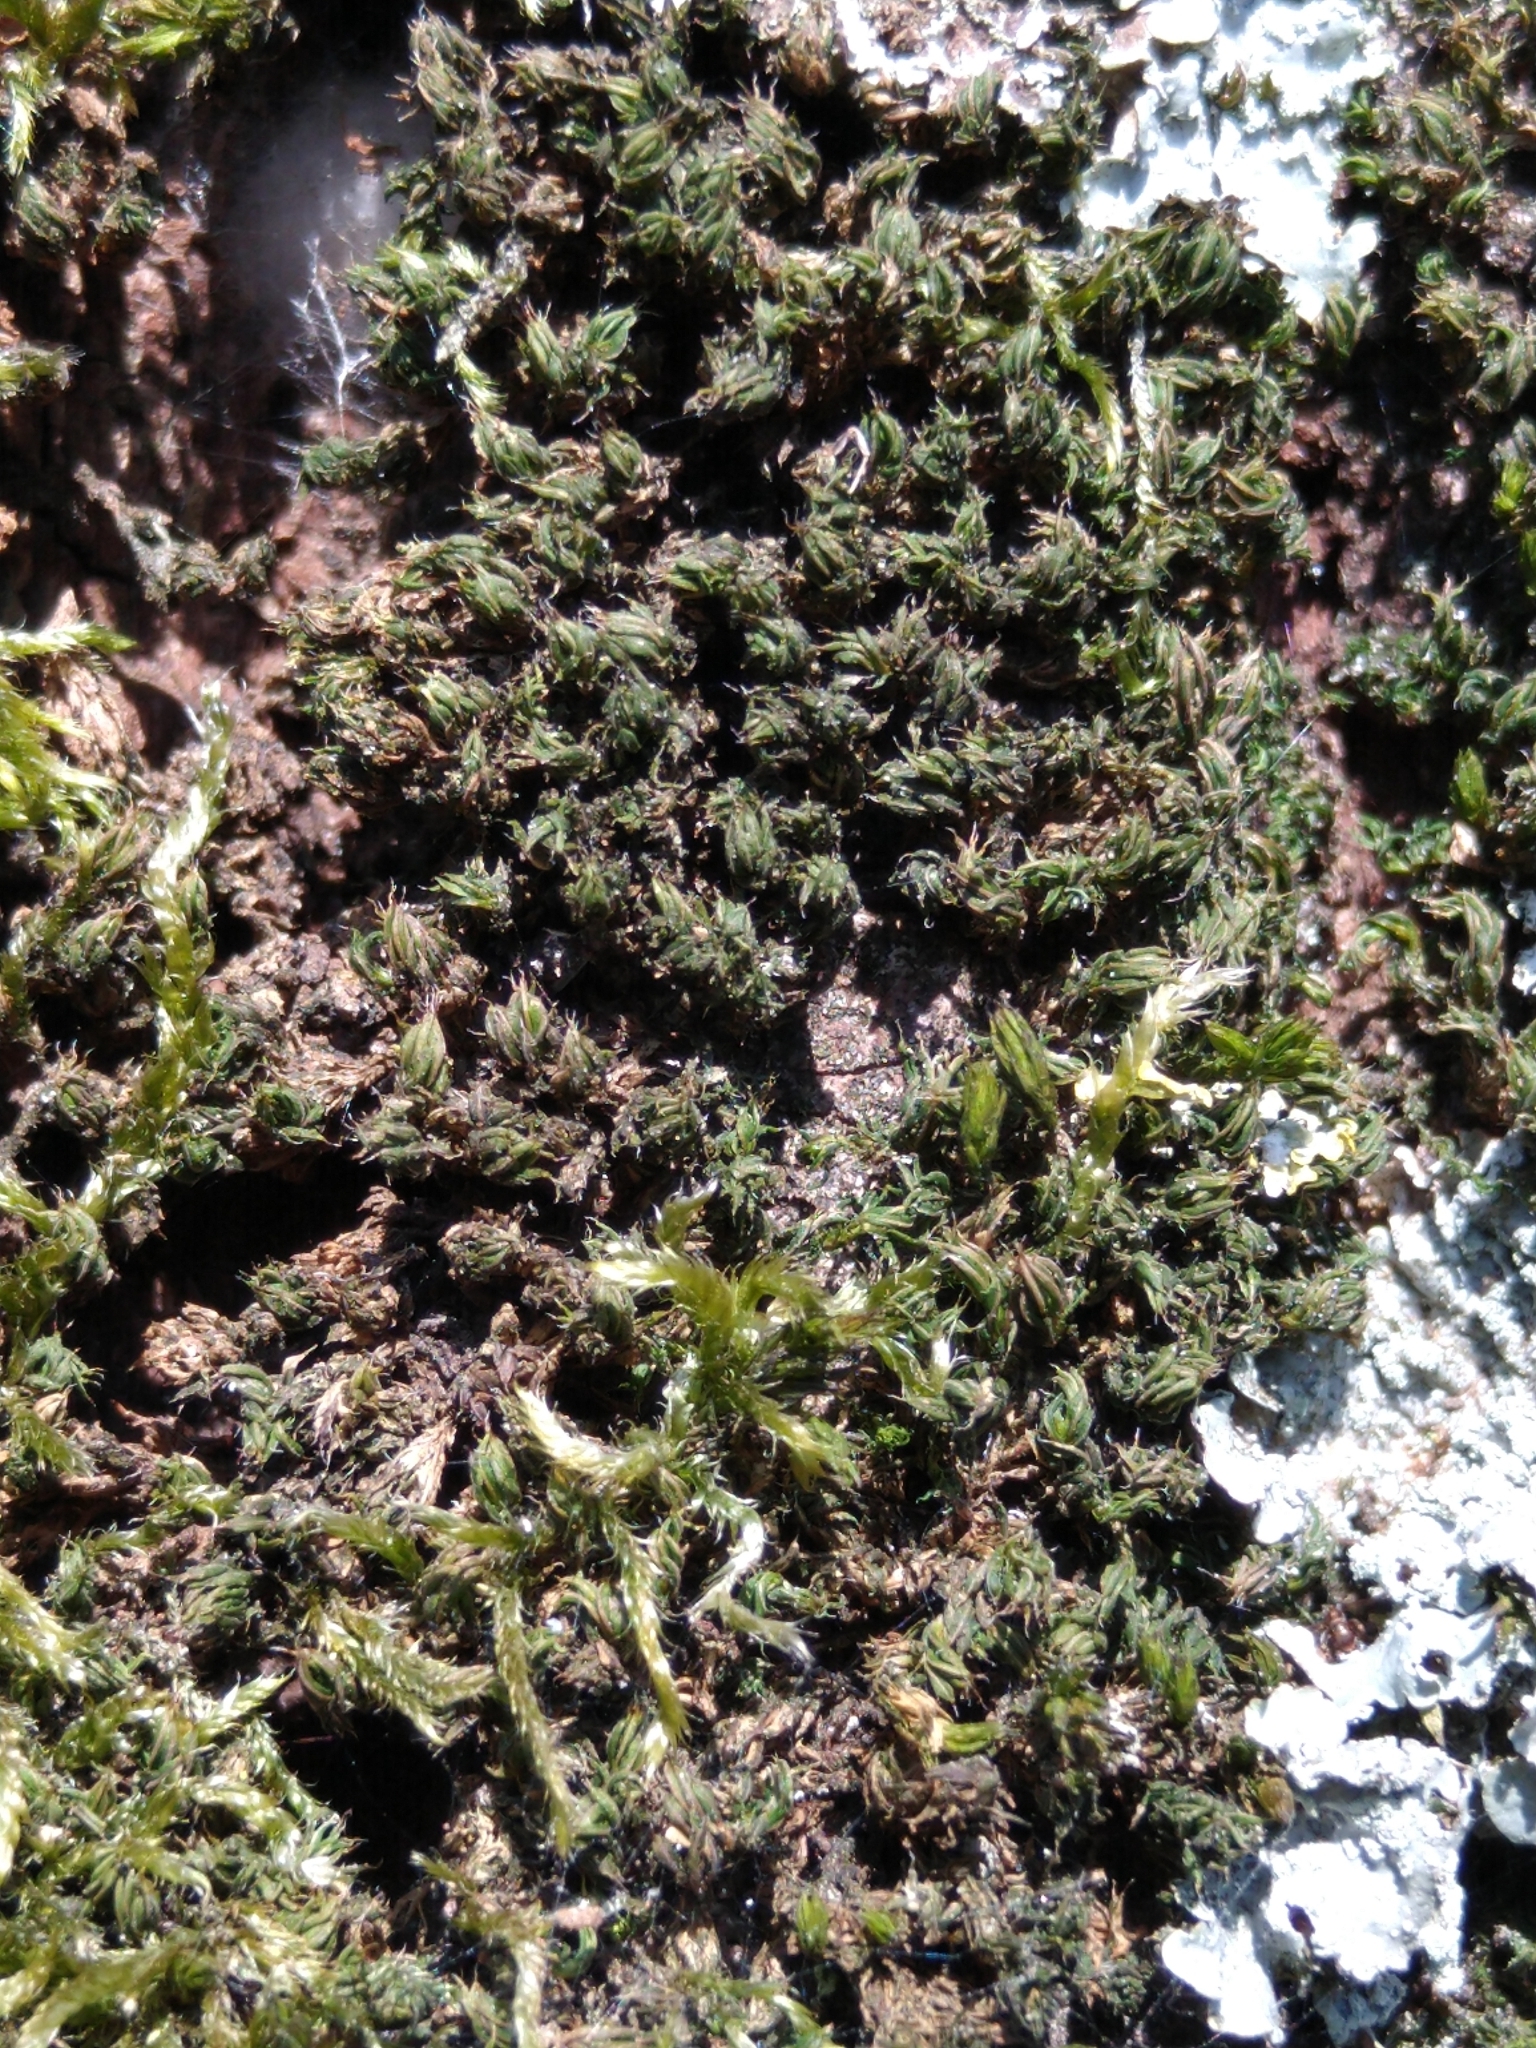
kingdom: Plantae
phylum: Bryophyta
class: Bryopsida
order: Pottiales
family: Pottiaceae
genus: Syntrichia
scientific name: Syntrichia papillosa
